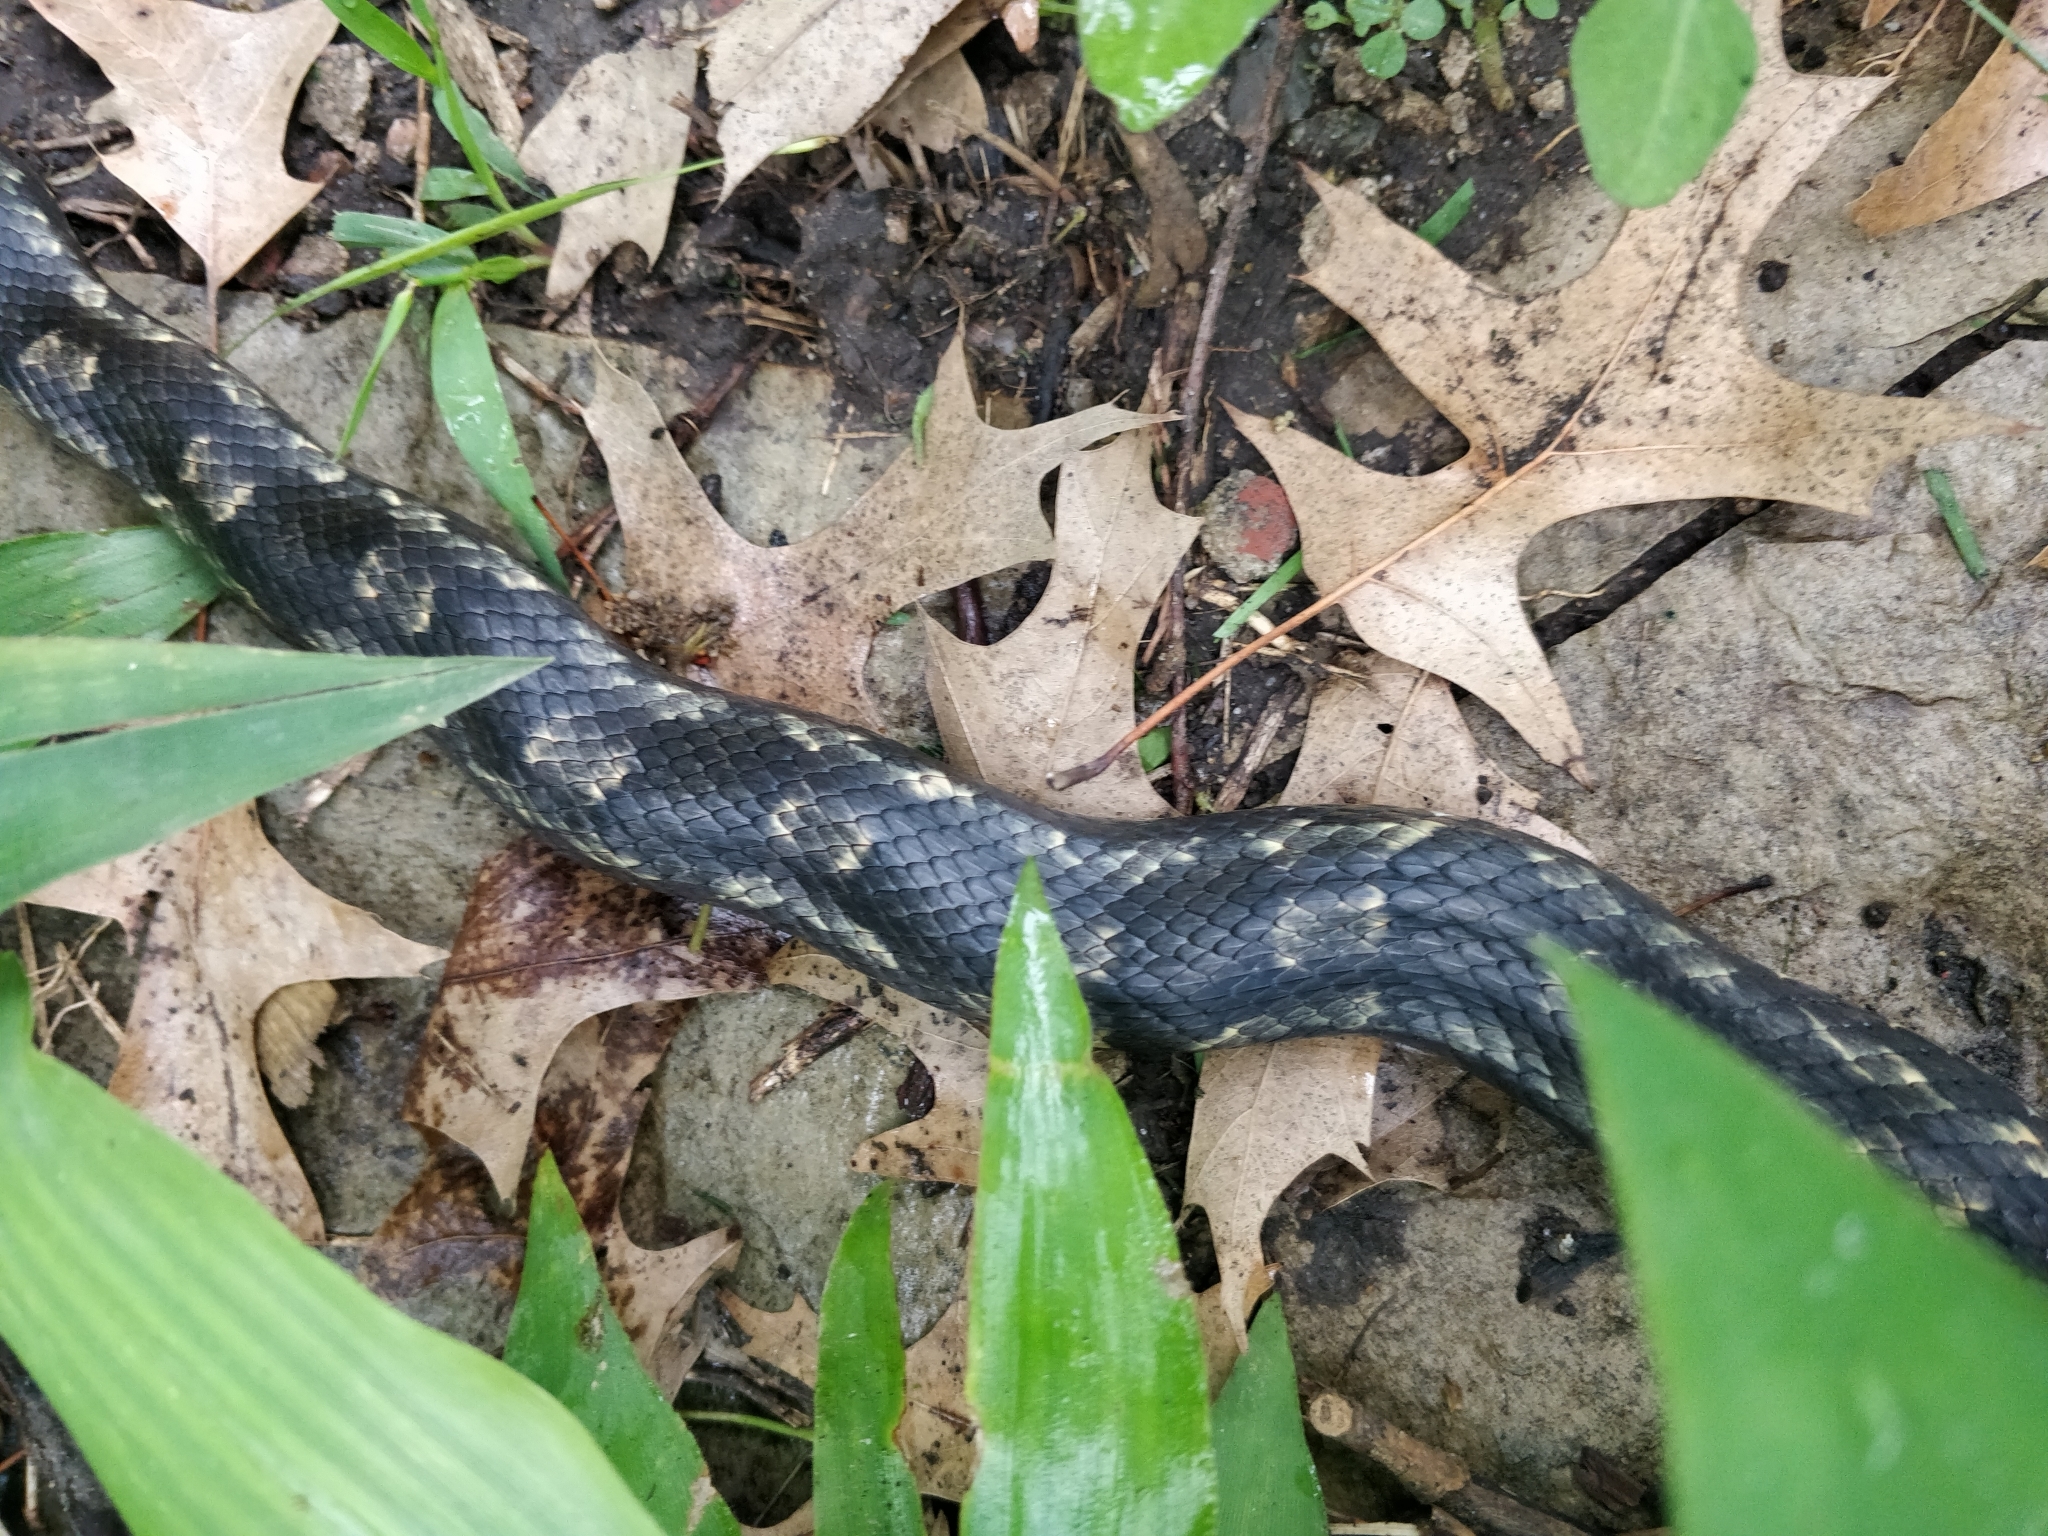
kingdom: Animalia
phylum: Chordata
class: Squamata
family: Colubridae
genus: Pantherophis
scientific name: Pantherophis obsoletus
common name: Black rat snake
